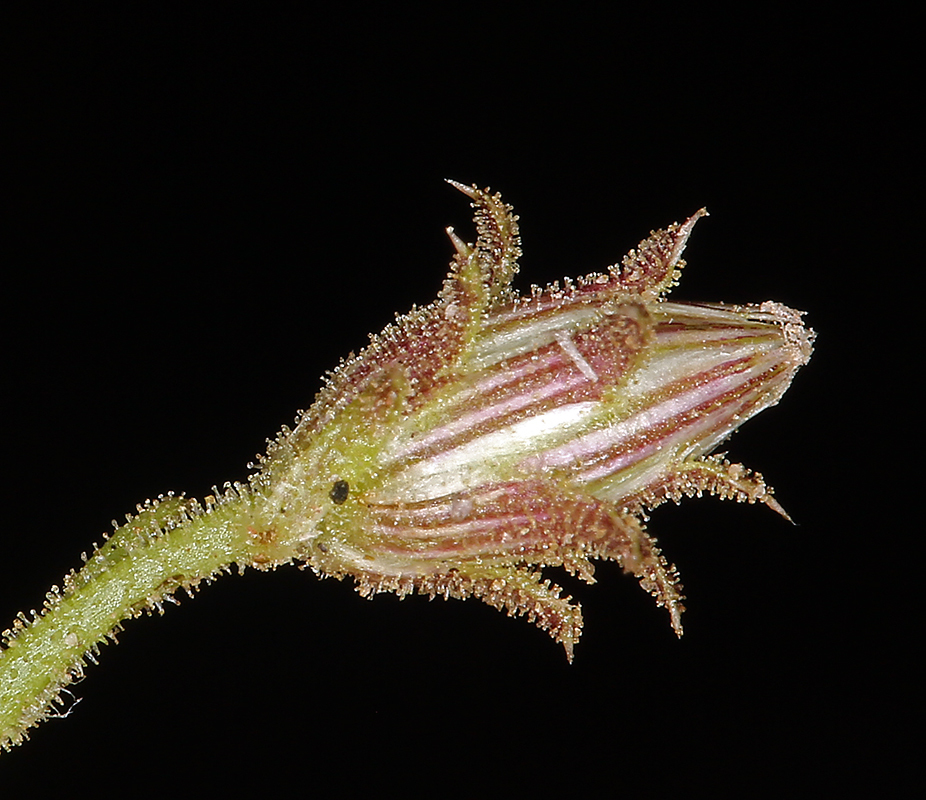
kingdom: Plantae
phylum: Tracheophyta
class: Magnoliopsida
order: Asterales
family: Asteraceae
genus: Pleurocoronis
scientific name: Pleurocoronis pluriseta
